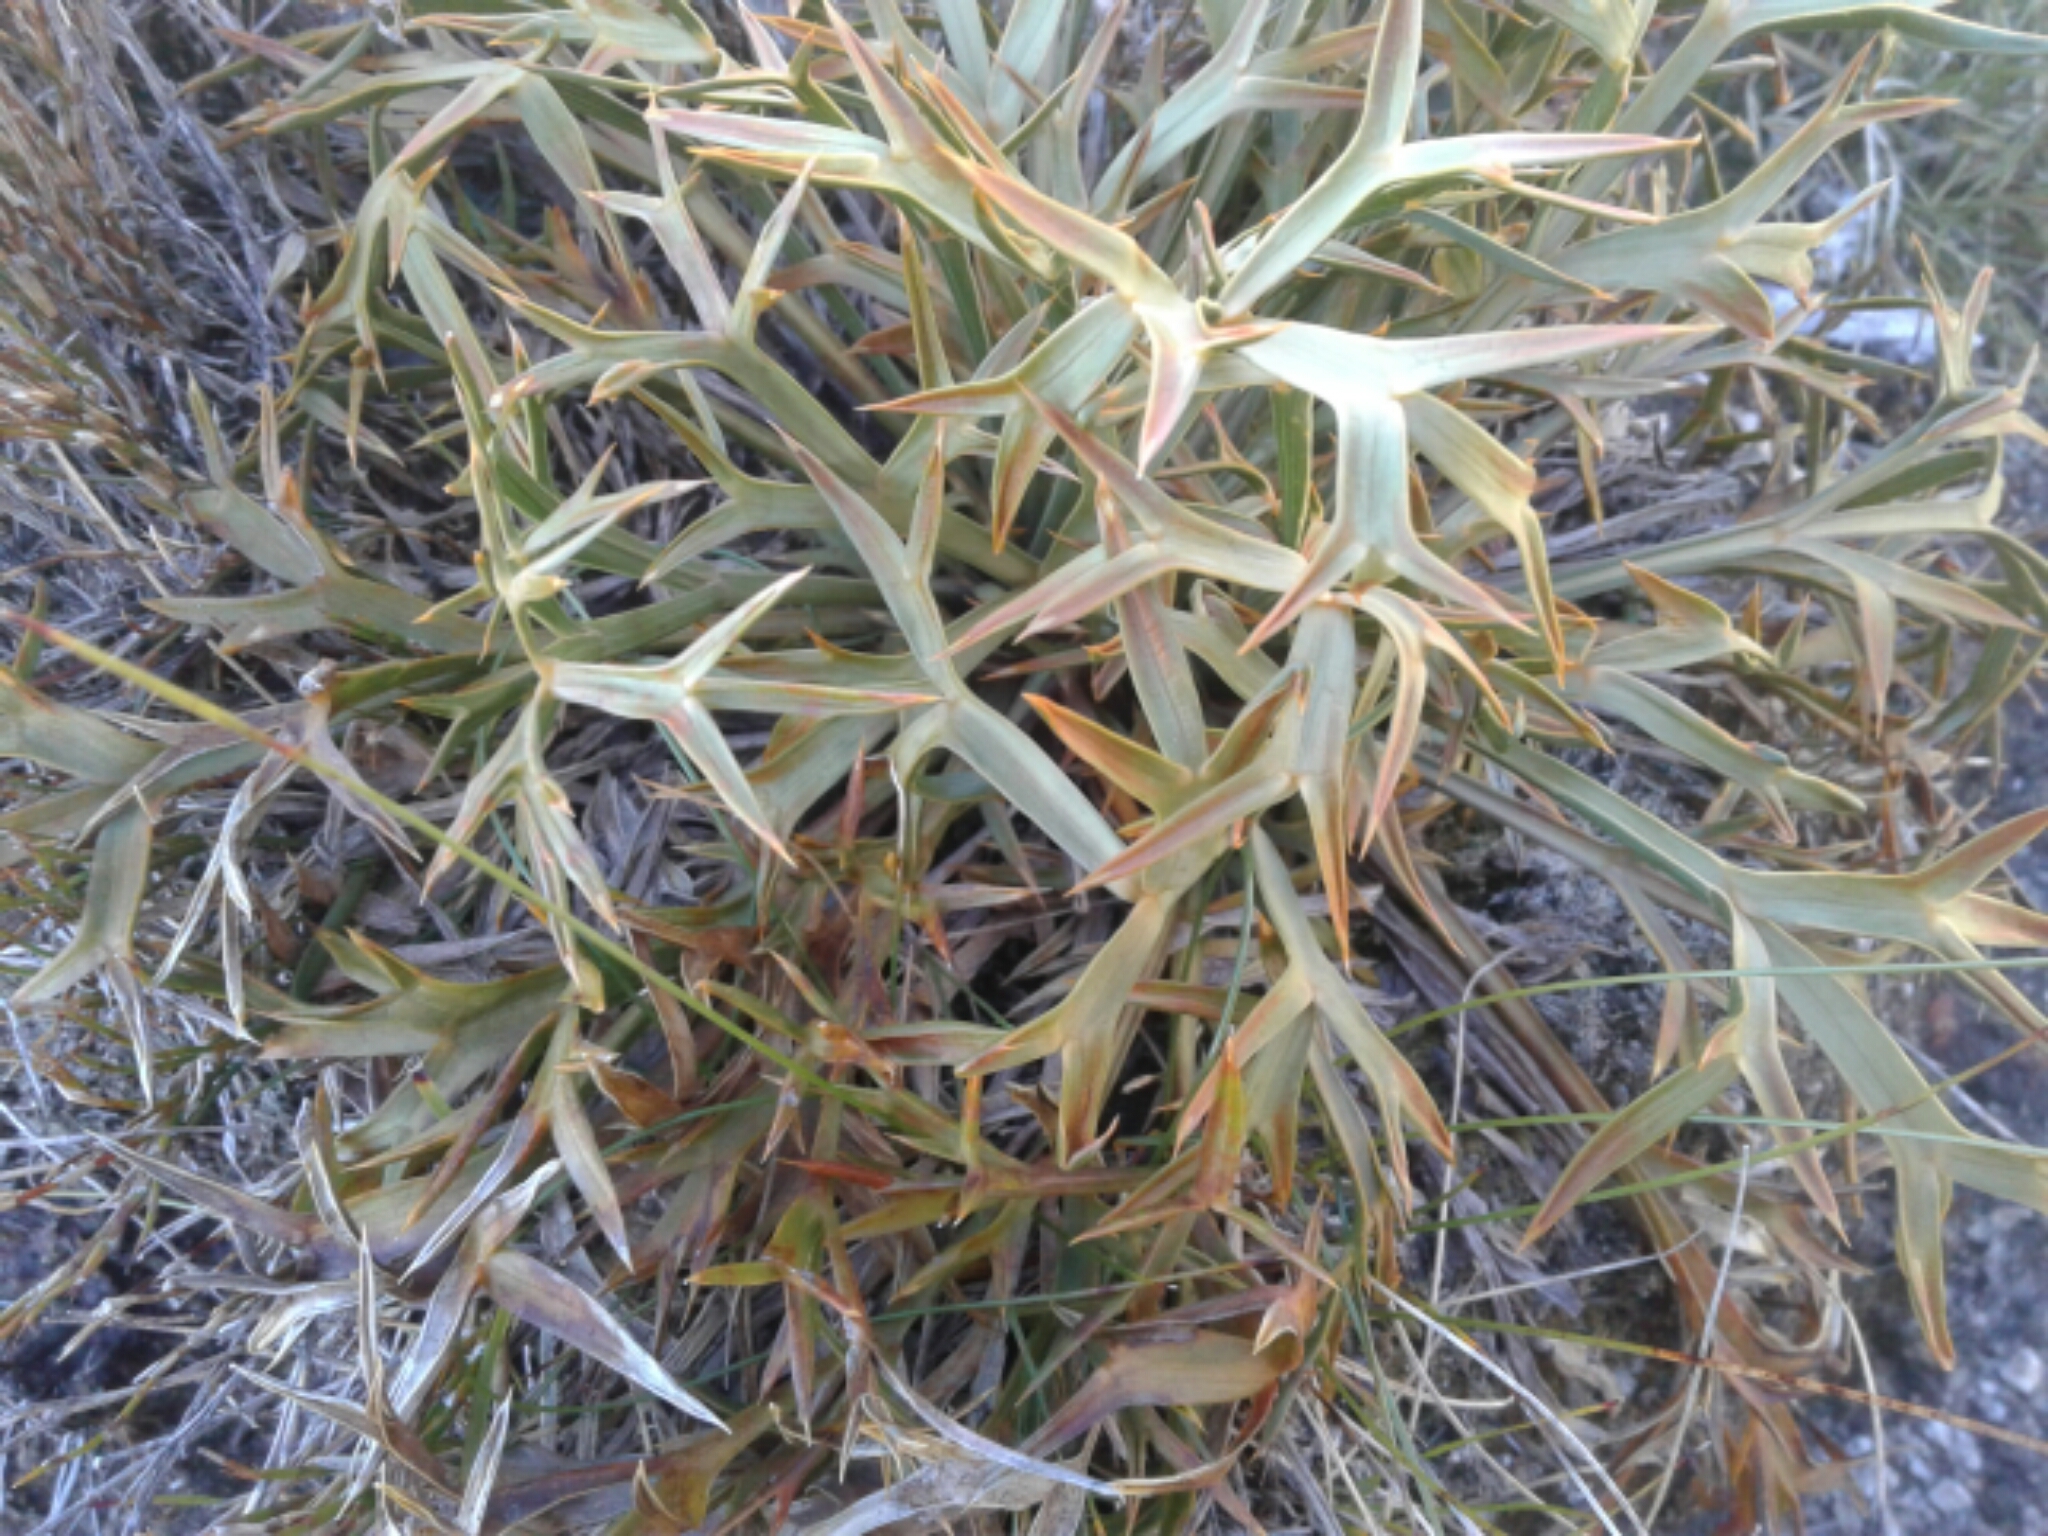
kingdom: Plantae
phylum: Tracheophyta
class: Magnoliopsida
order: Apiales
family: Apiaceae
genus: Aciphylla
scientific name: Aciphylla hookeri
